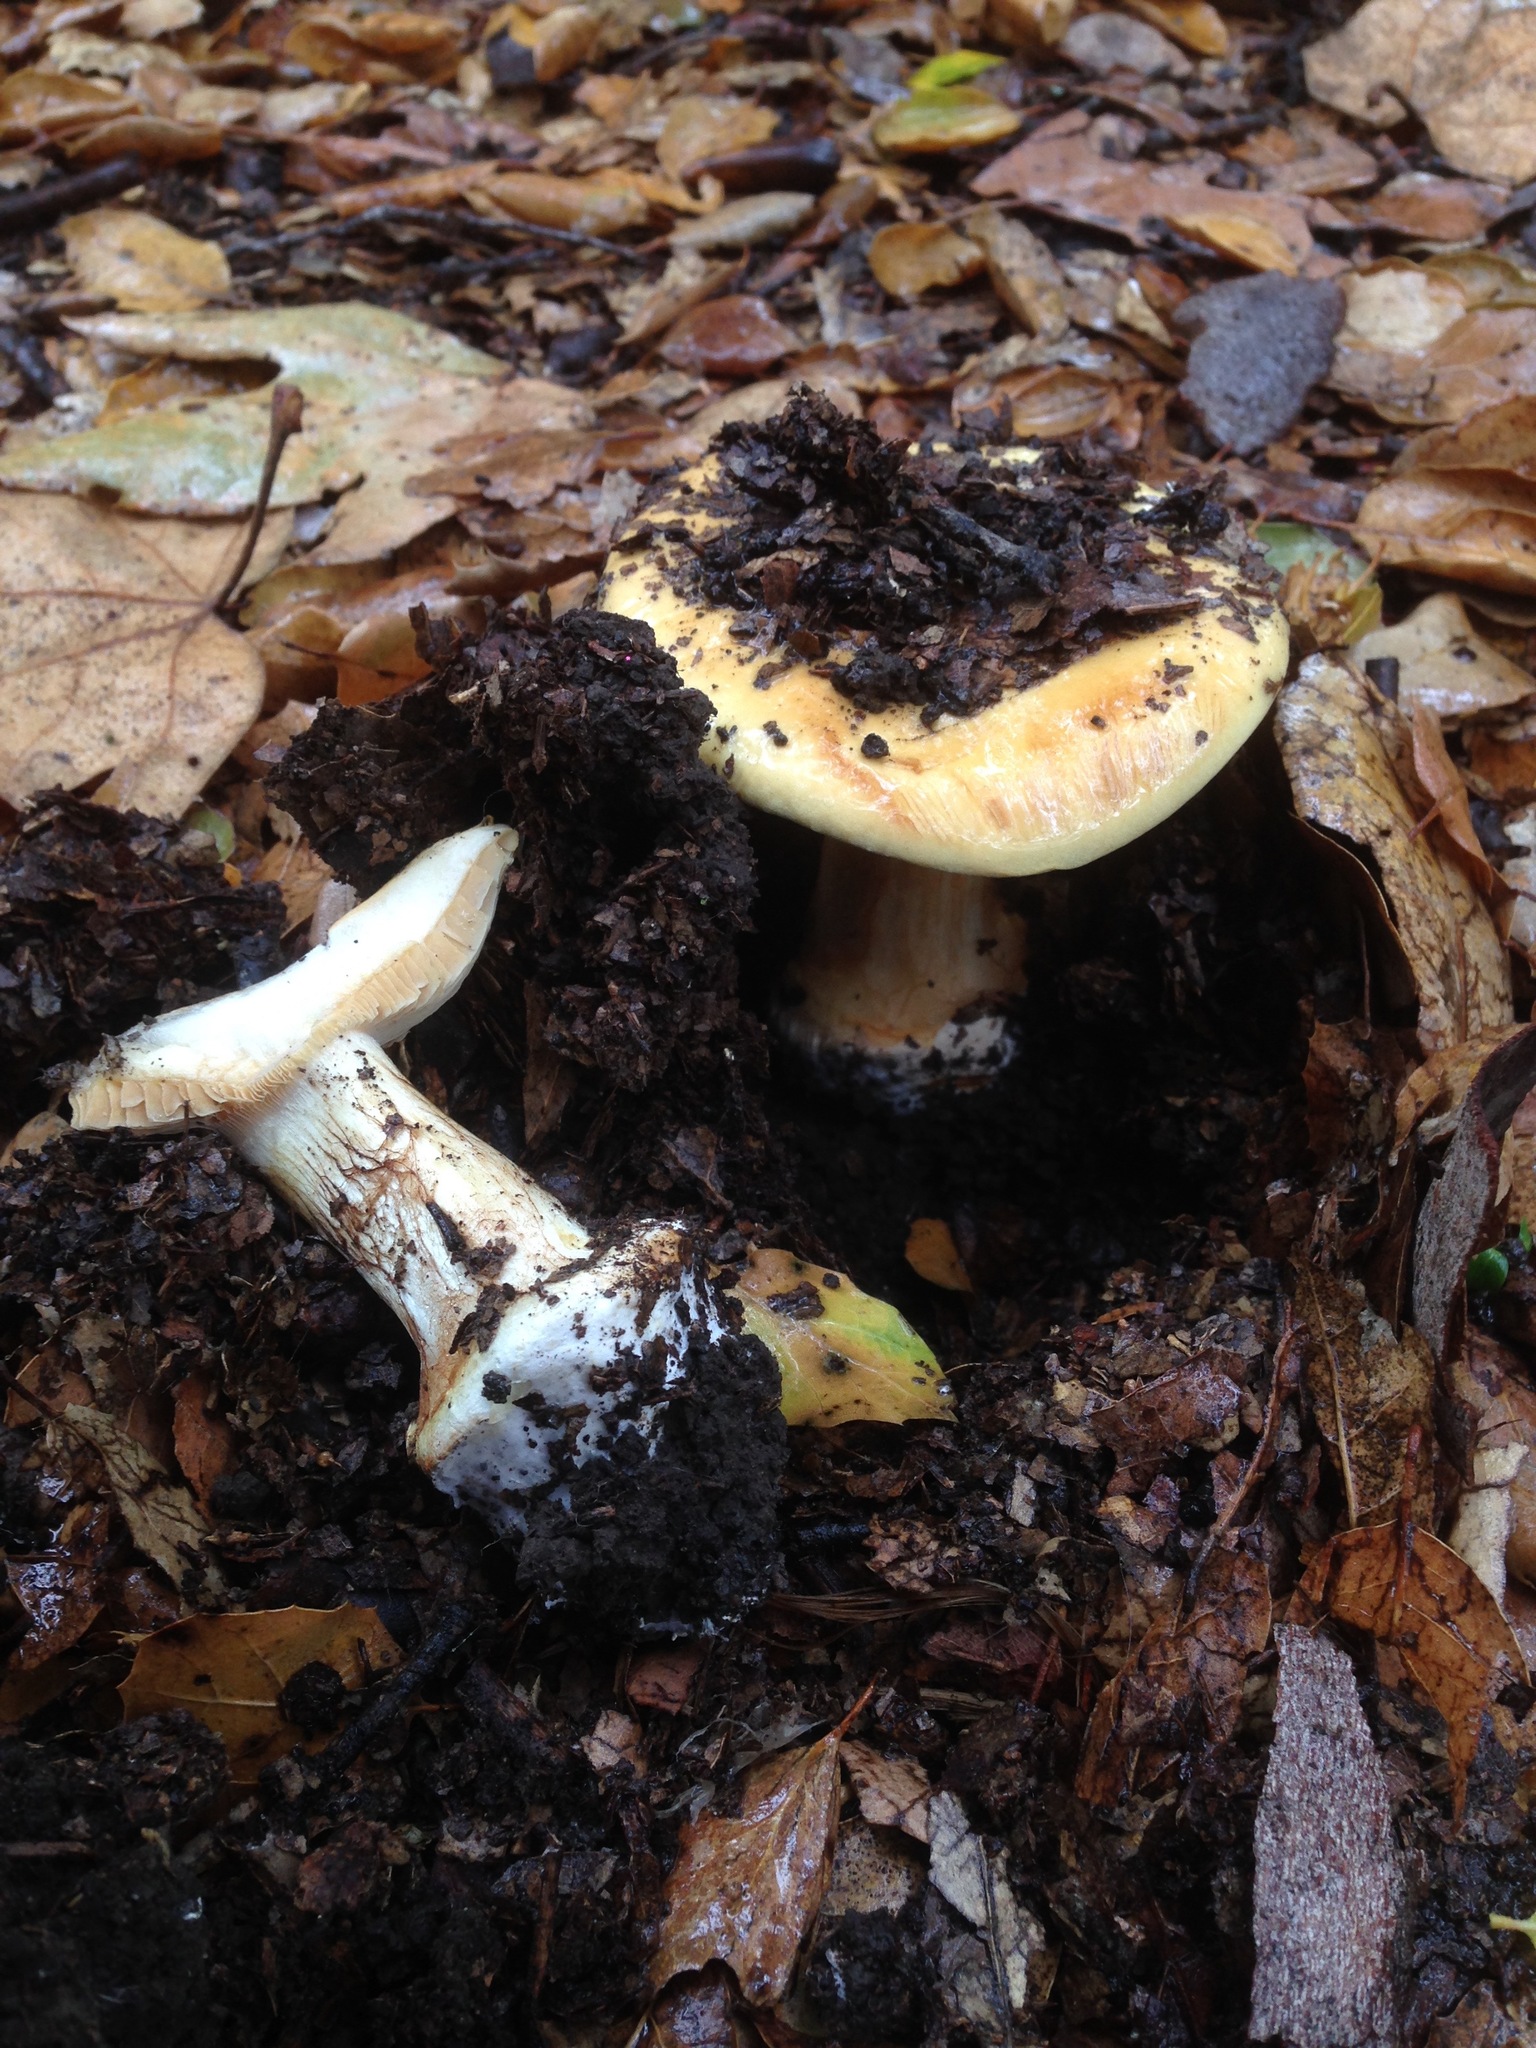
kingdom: Fungi
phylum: Basidiomycota
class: Agaricomycetes
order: Agaricales
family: Cortinariaceae
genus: Calonarius
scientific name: Calonarius xanthodryophilus
